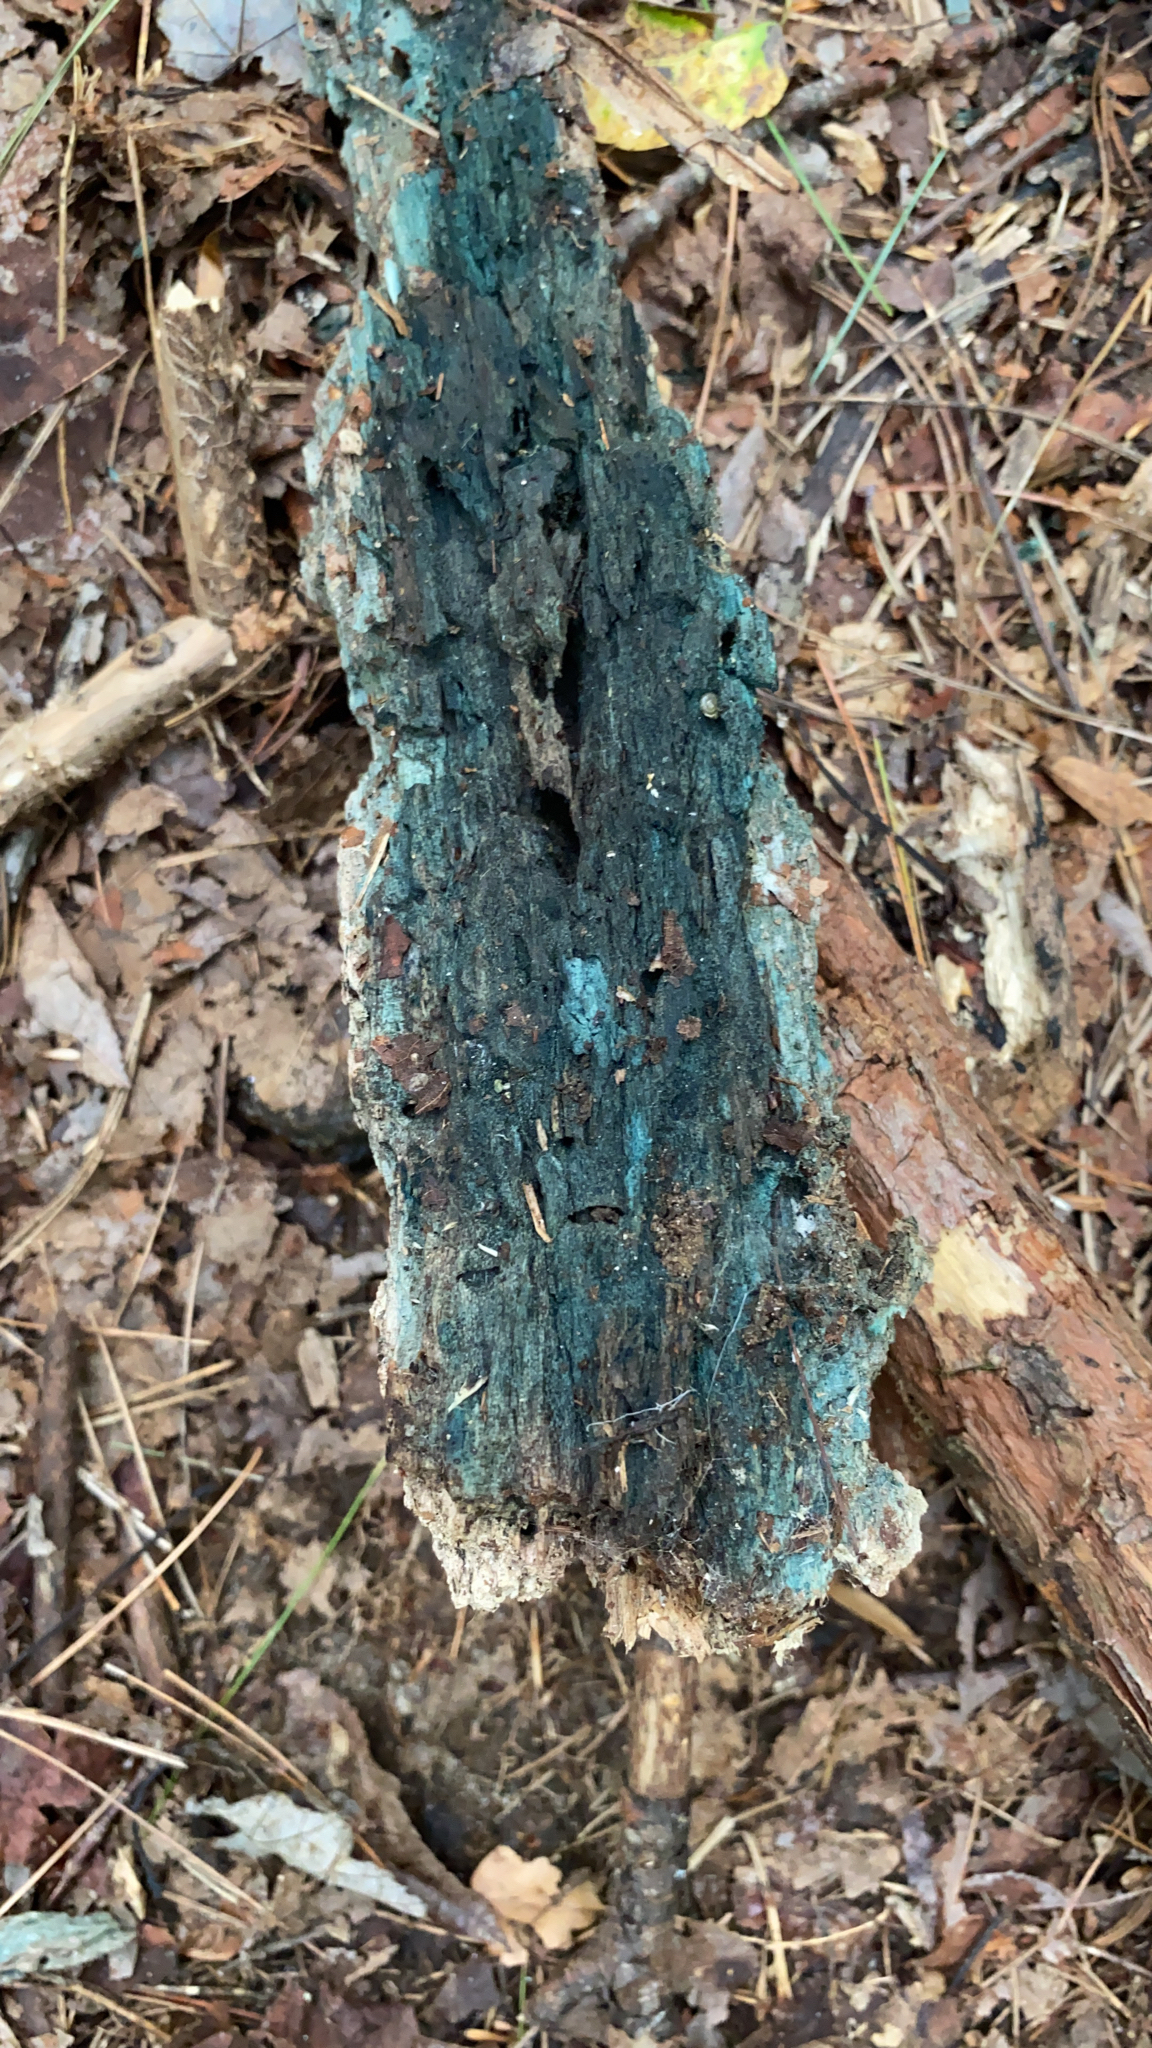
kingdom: Fungi
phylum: Ascomycota
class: Leotiomycetes
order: Helotiales
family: Chlorociboriaceae
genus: Chlorociboria
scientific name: Chlorociboria
